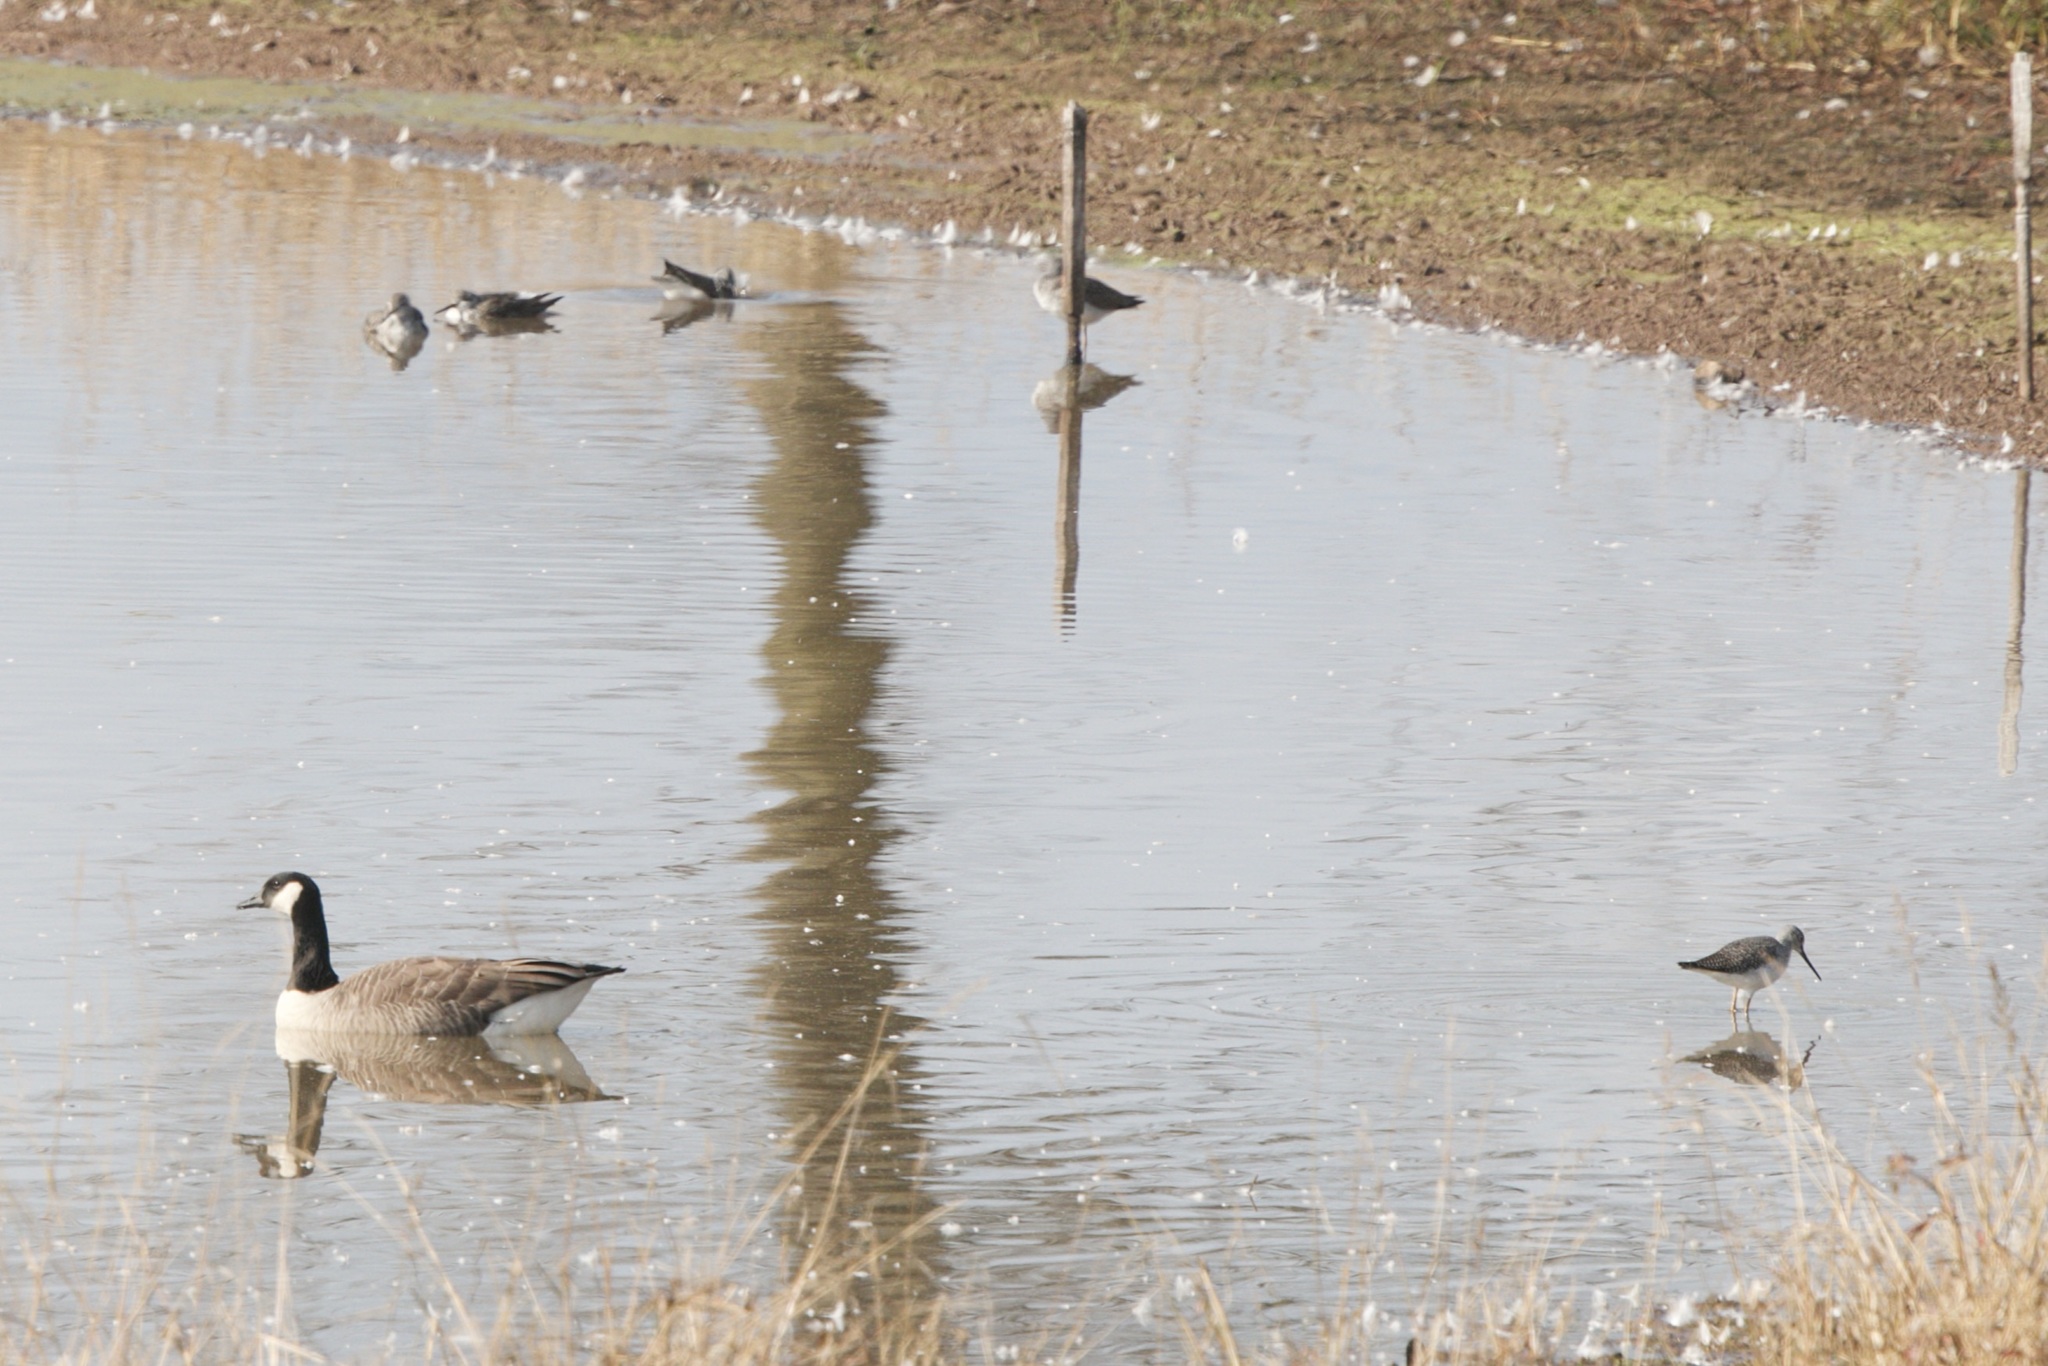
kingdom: Animalia
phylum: Chordata
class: Aves
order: Charadriiformes
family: Scolopacidae
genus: Tringa
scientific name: Tringa melanoleuca
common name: Greater yellowlegs
